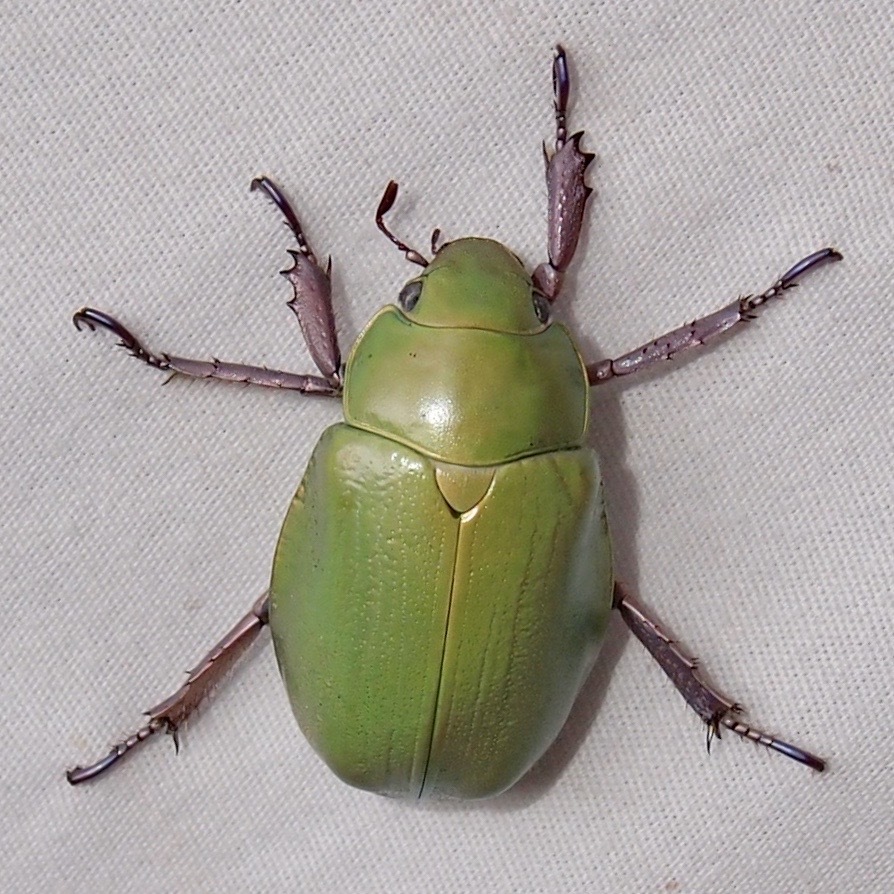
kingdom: Animalia
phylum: Arthropoda
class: Insecta
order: Coleoptera
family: Scarabaeidae
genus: Chrysina
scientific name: Chrysina beyeri
